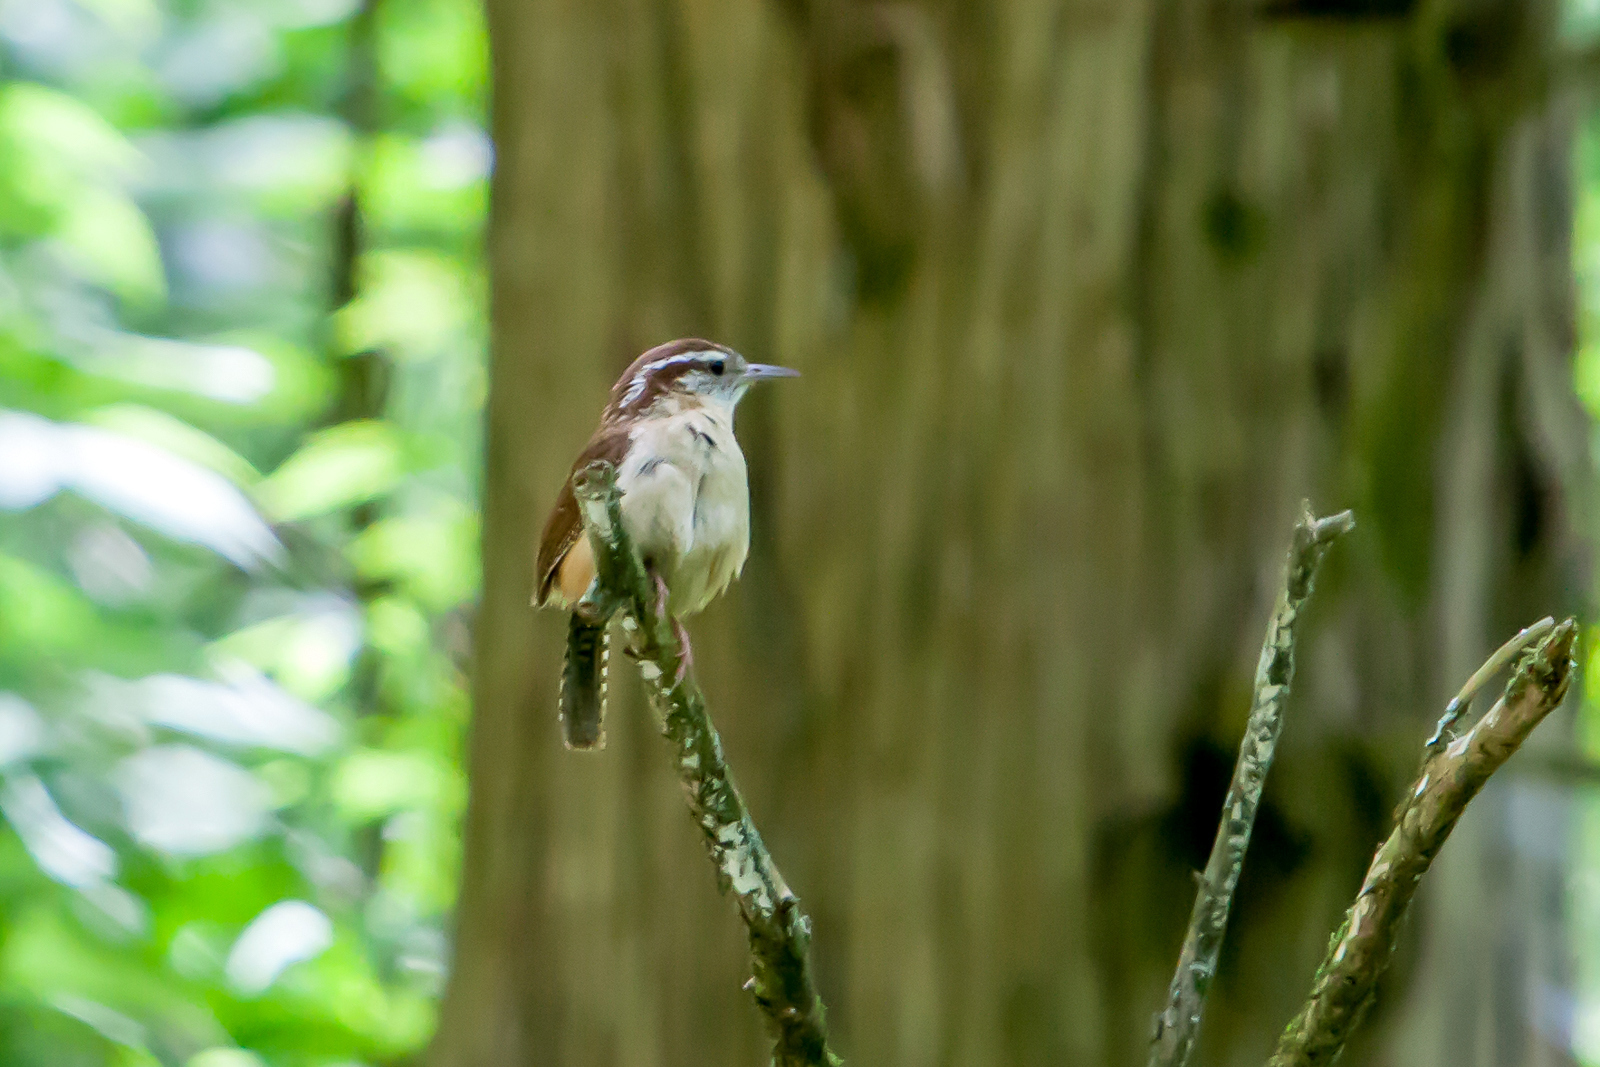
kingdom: Animalia
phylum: Chordata
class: Aves
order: Passeriformes
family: Troglodytidae
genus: Thryothorus
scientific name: Thryothorus ludovicianus
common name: Carolina wren
